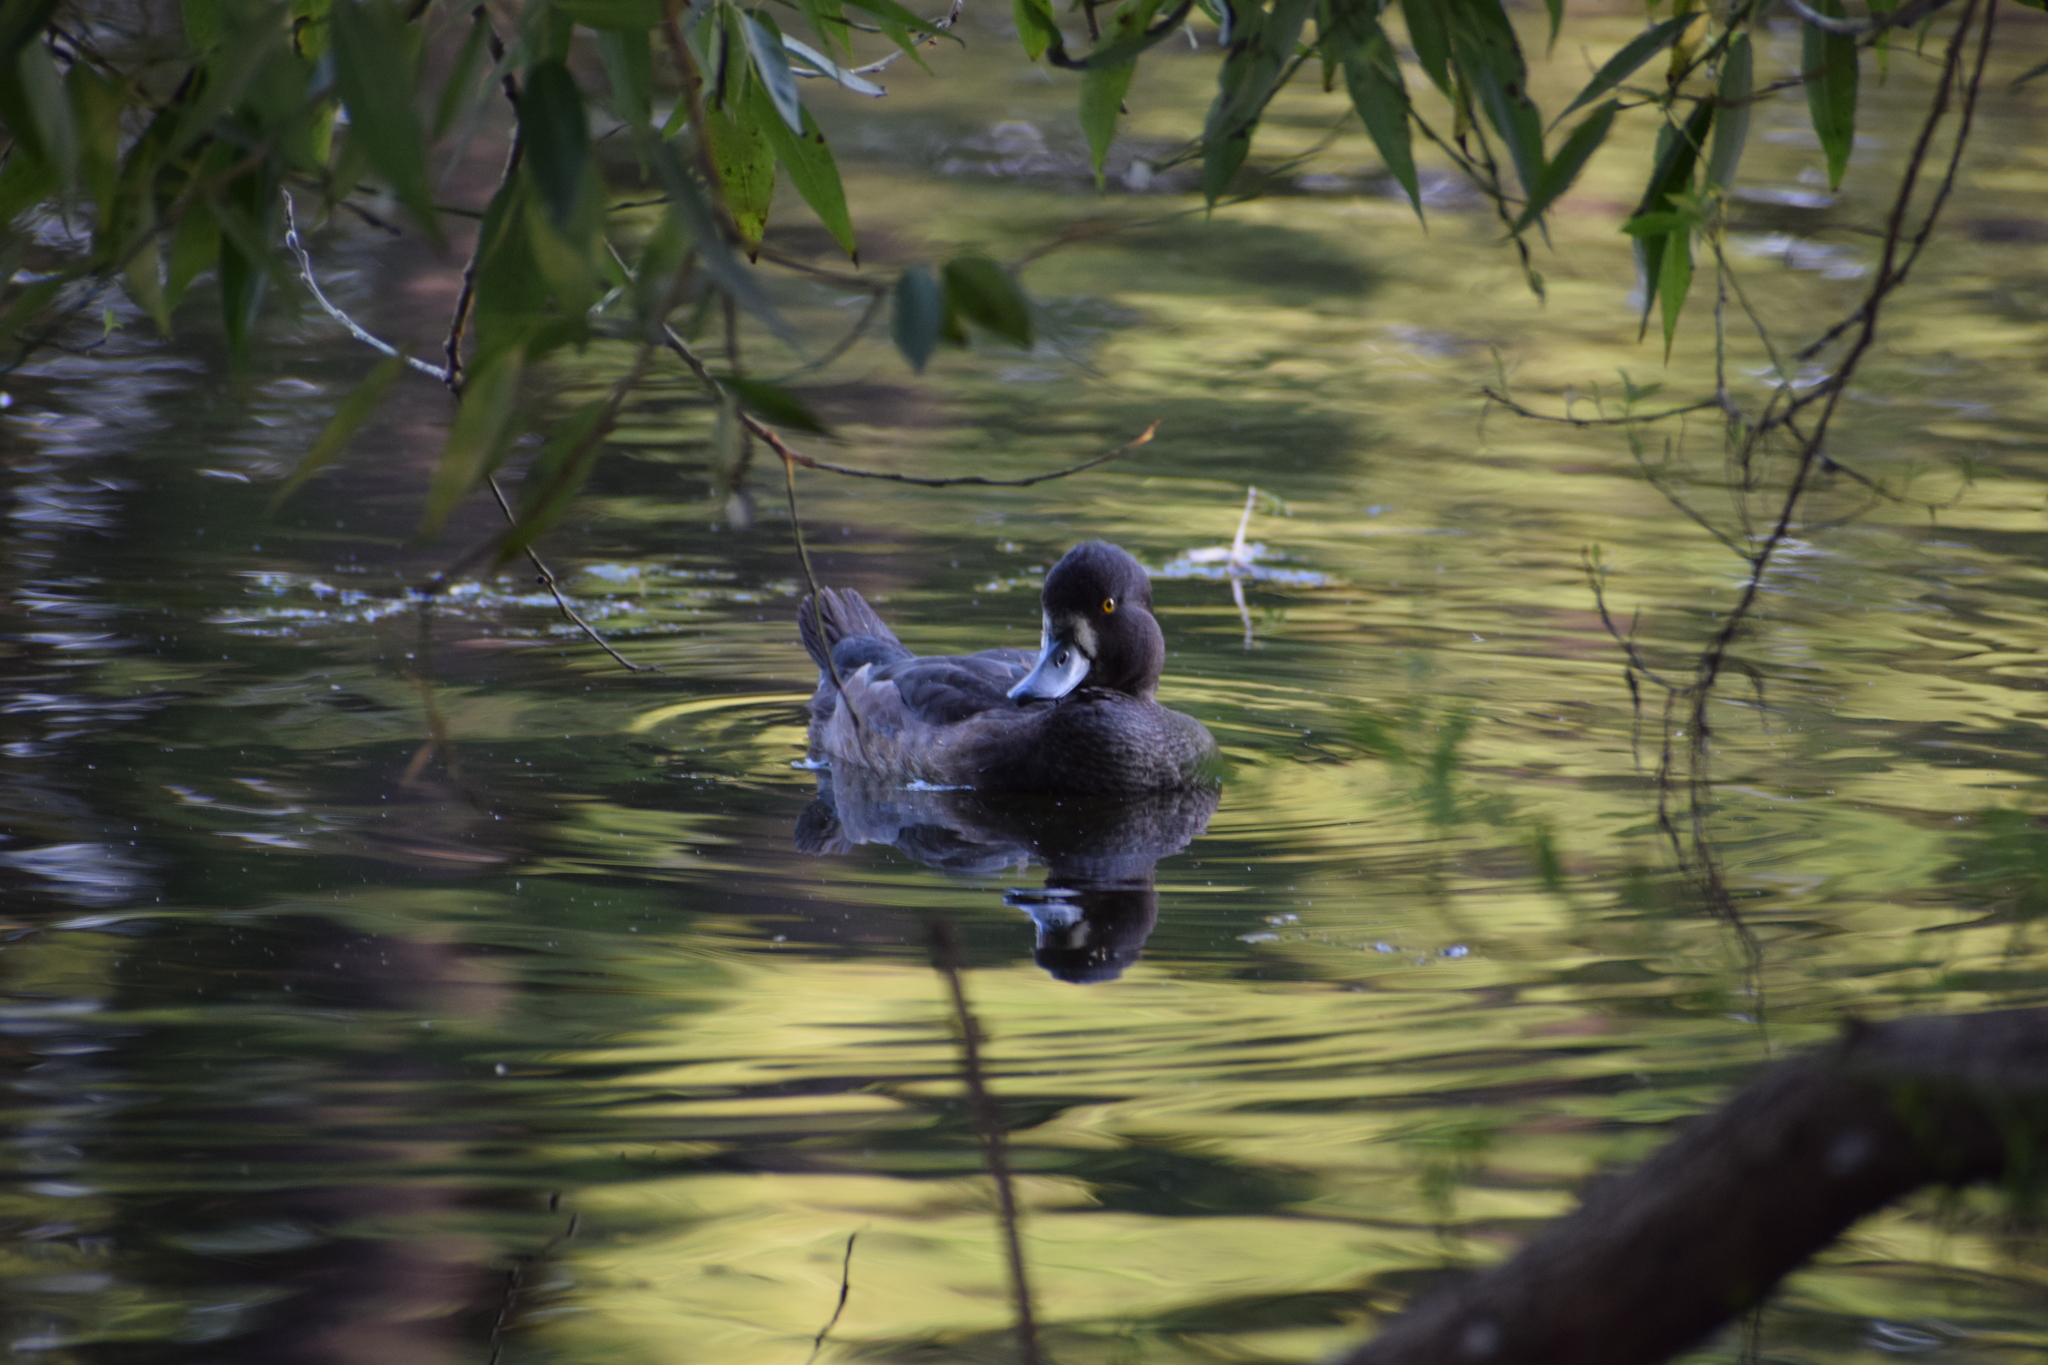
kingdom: Animalia
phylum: Chordata
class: Aves
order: Anseriformes
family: Anatidae
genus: Aythya
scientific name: Aythya fuligula
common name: Tufted duck
